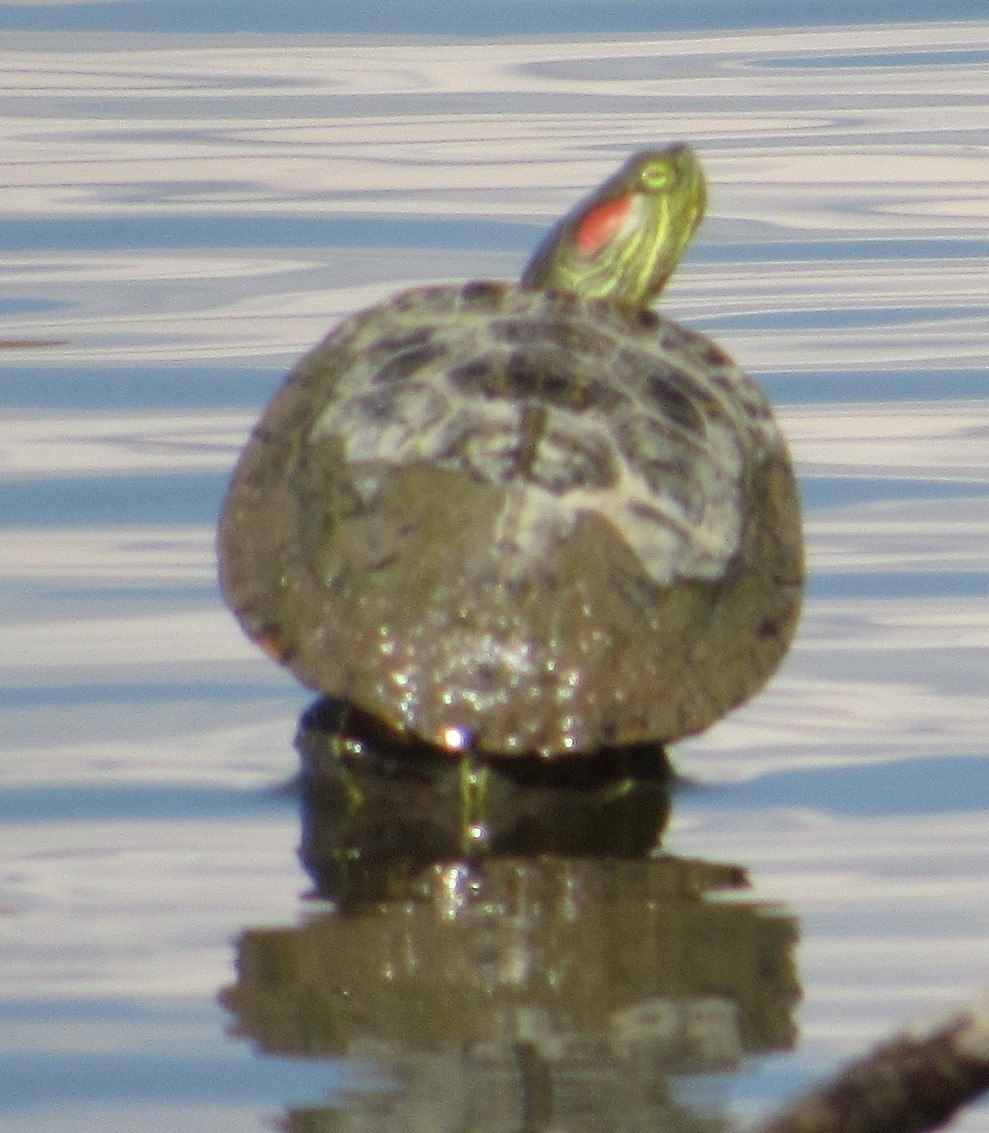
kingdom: Animalia
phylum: Chordata
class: Testudines
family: Emydidae
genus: Trachemys
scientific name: Trachemys scripta
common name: Slider
